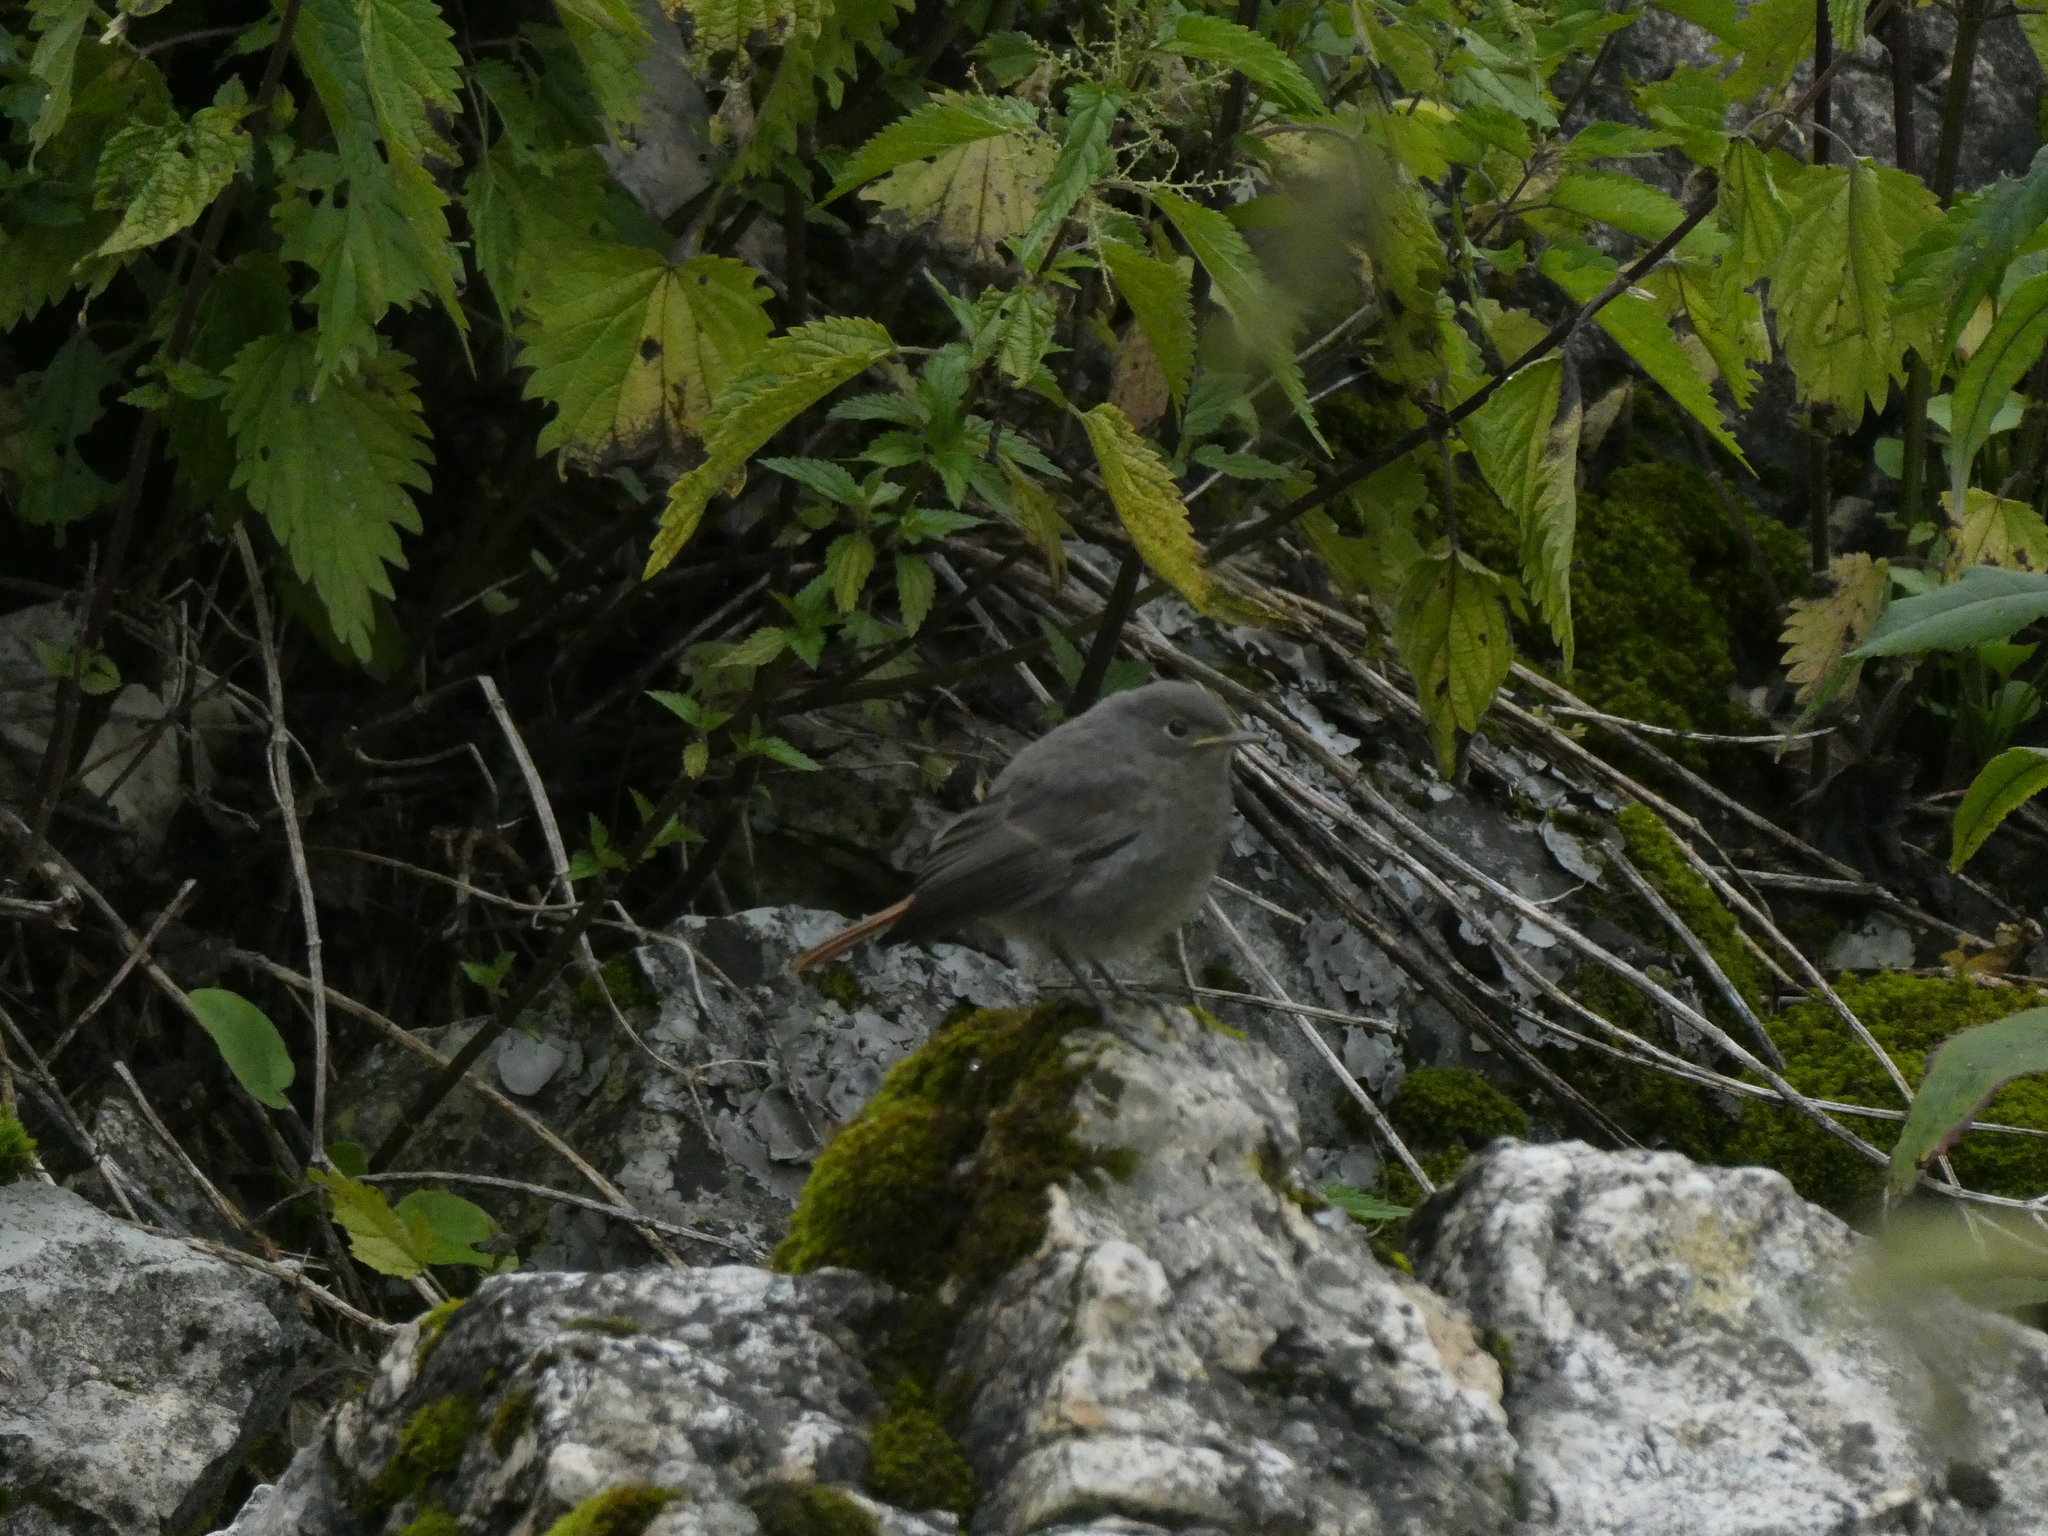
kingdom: Animalia
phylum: Chordata
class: Aves
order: Passeriformes
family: Muscicapidae
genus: Phoenicurus
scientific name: Phoenicurus ochruros
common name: Black redstart
